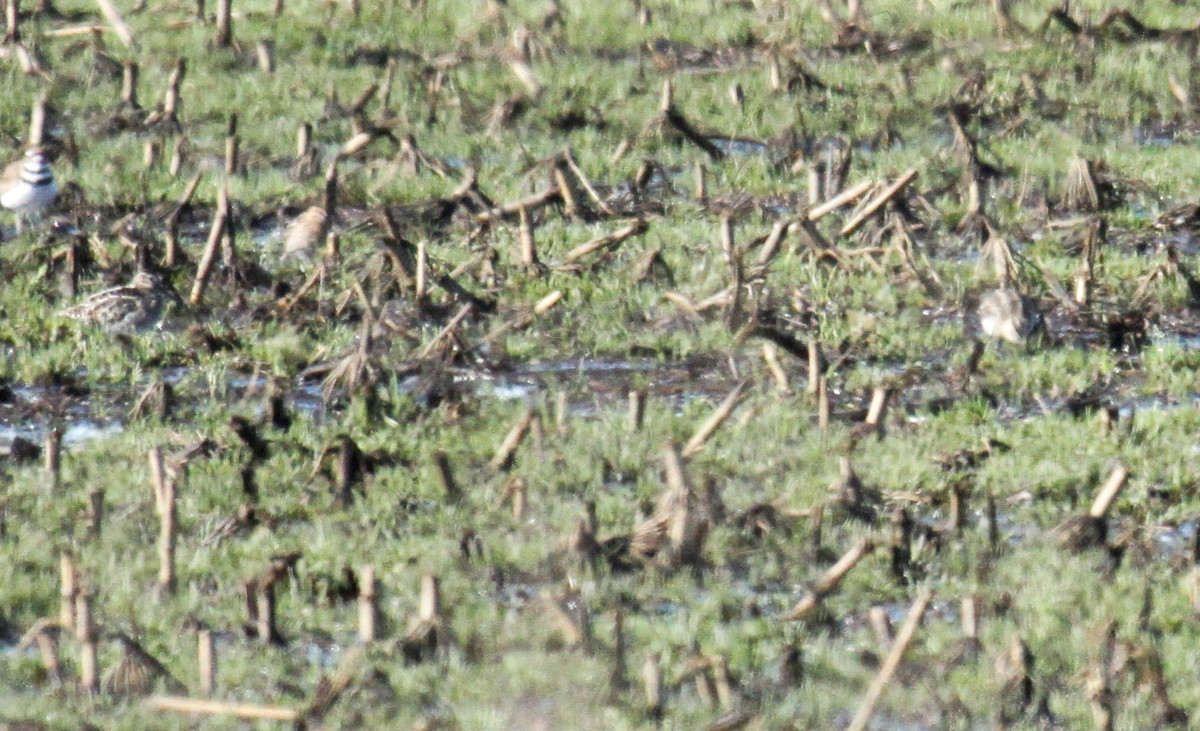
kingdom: Animalia
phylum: Chordata
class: Aves
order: Charadriiformes
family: Scolopacidae
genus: Gallinago
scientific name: Gallinago delicata
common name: Wilson's snipe
